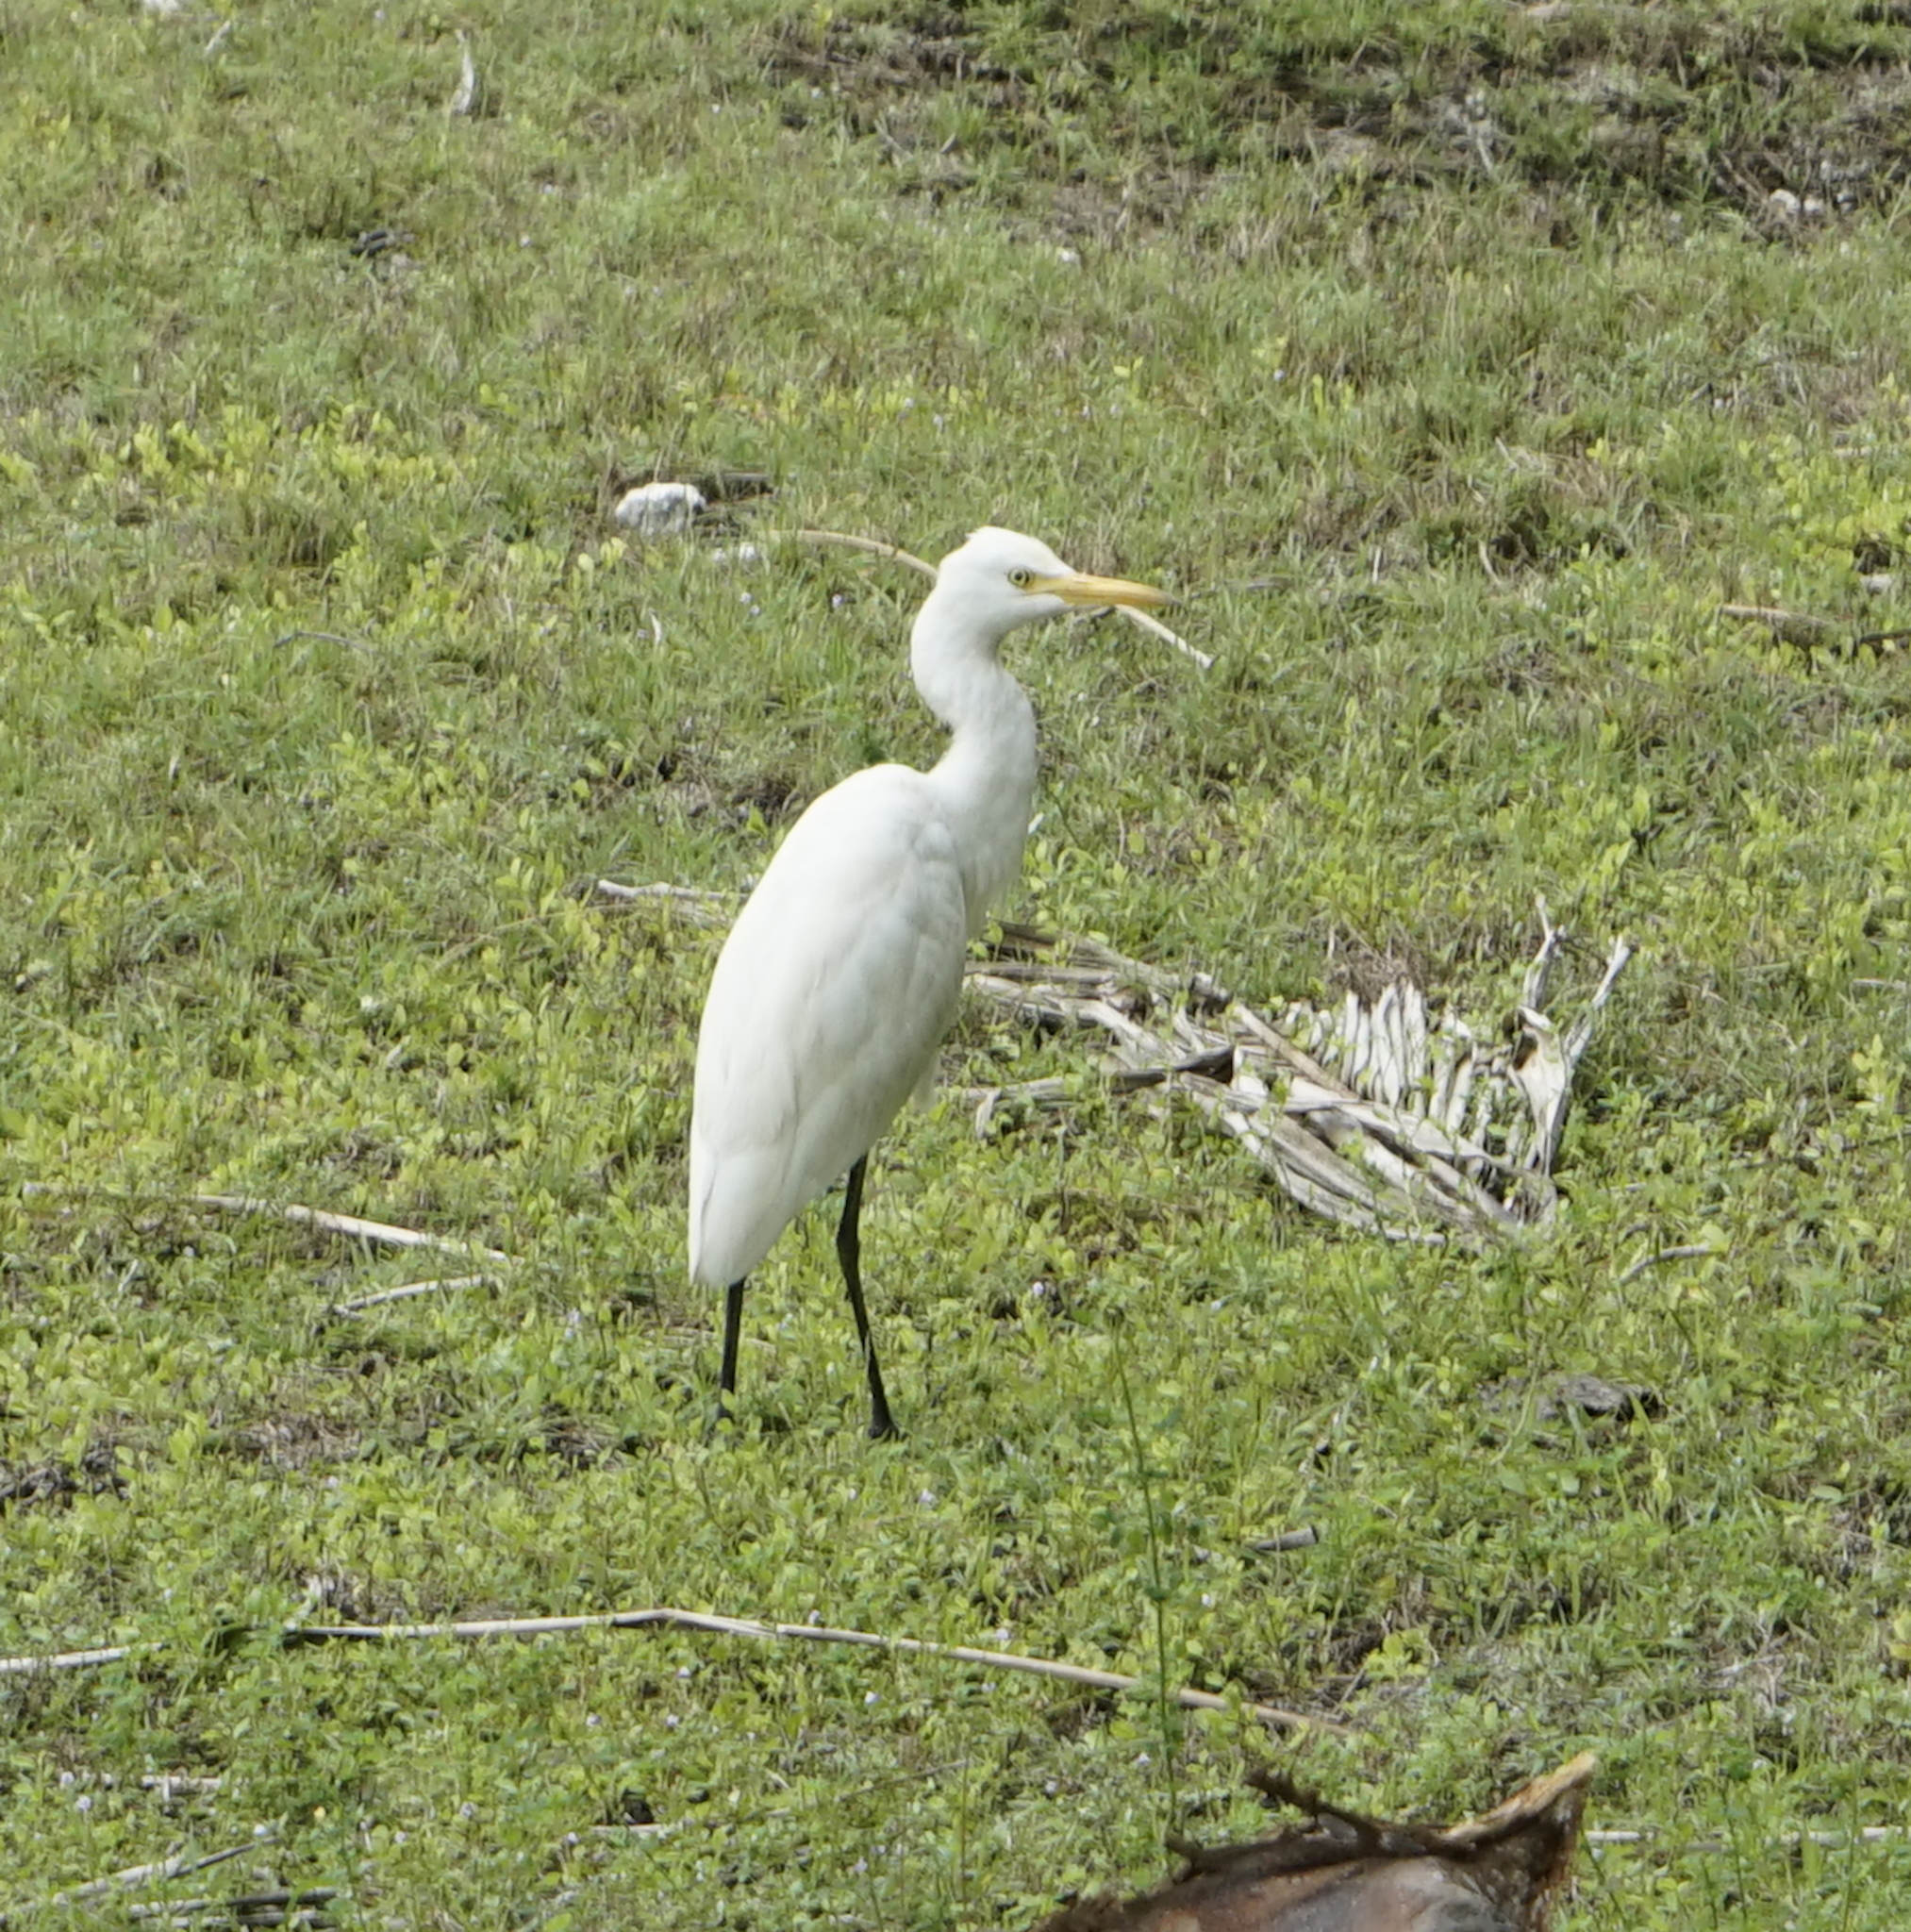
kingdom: Animalia
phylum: Chordata
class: Aves
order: Pelecaniformes
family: Ardeidae
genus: Bubulcus
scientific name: Bubulcus coromandus
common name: Eastern cattle egret
